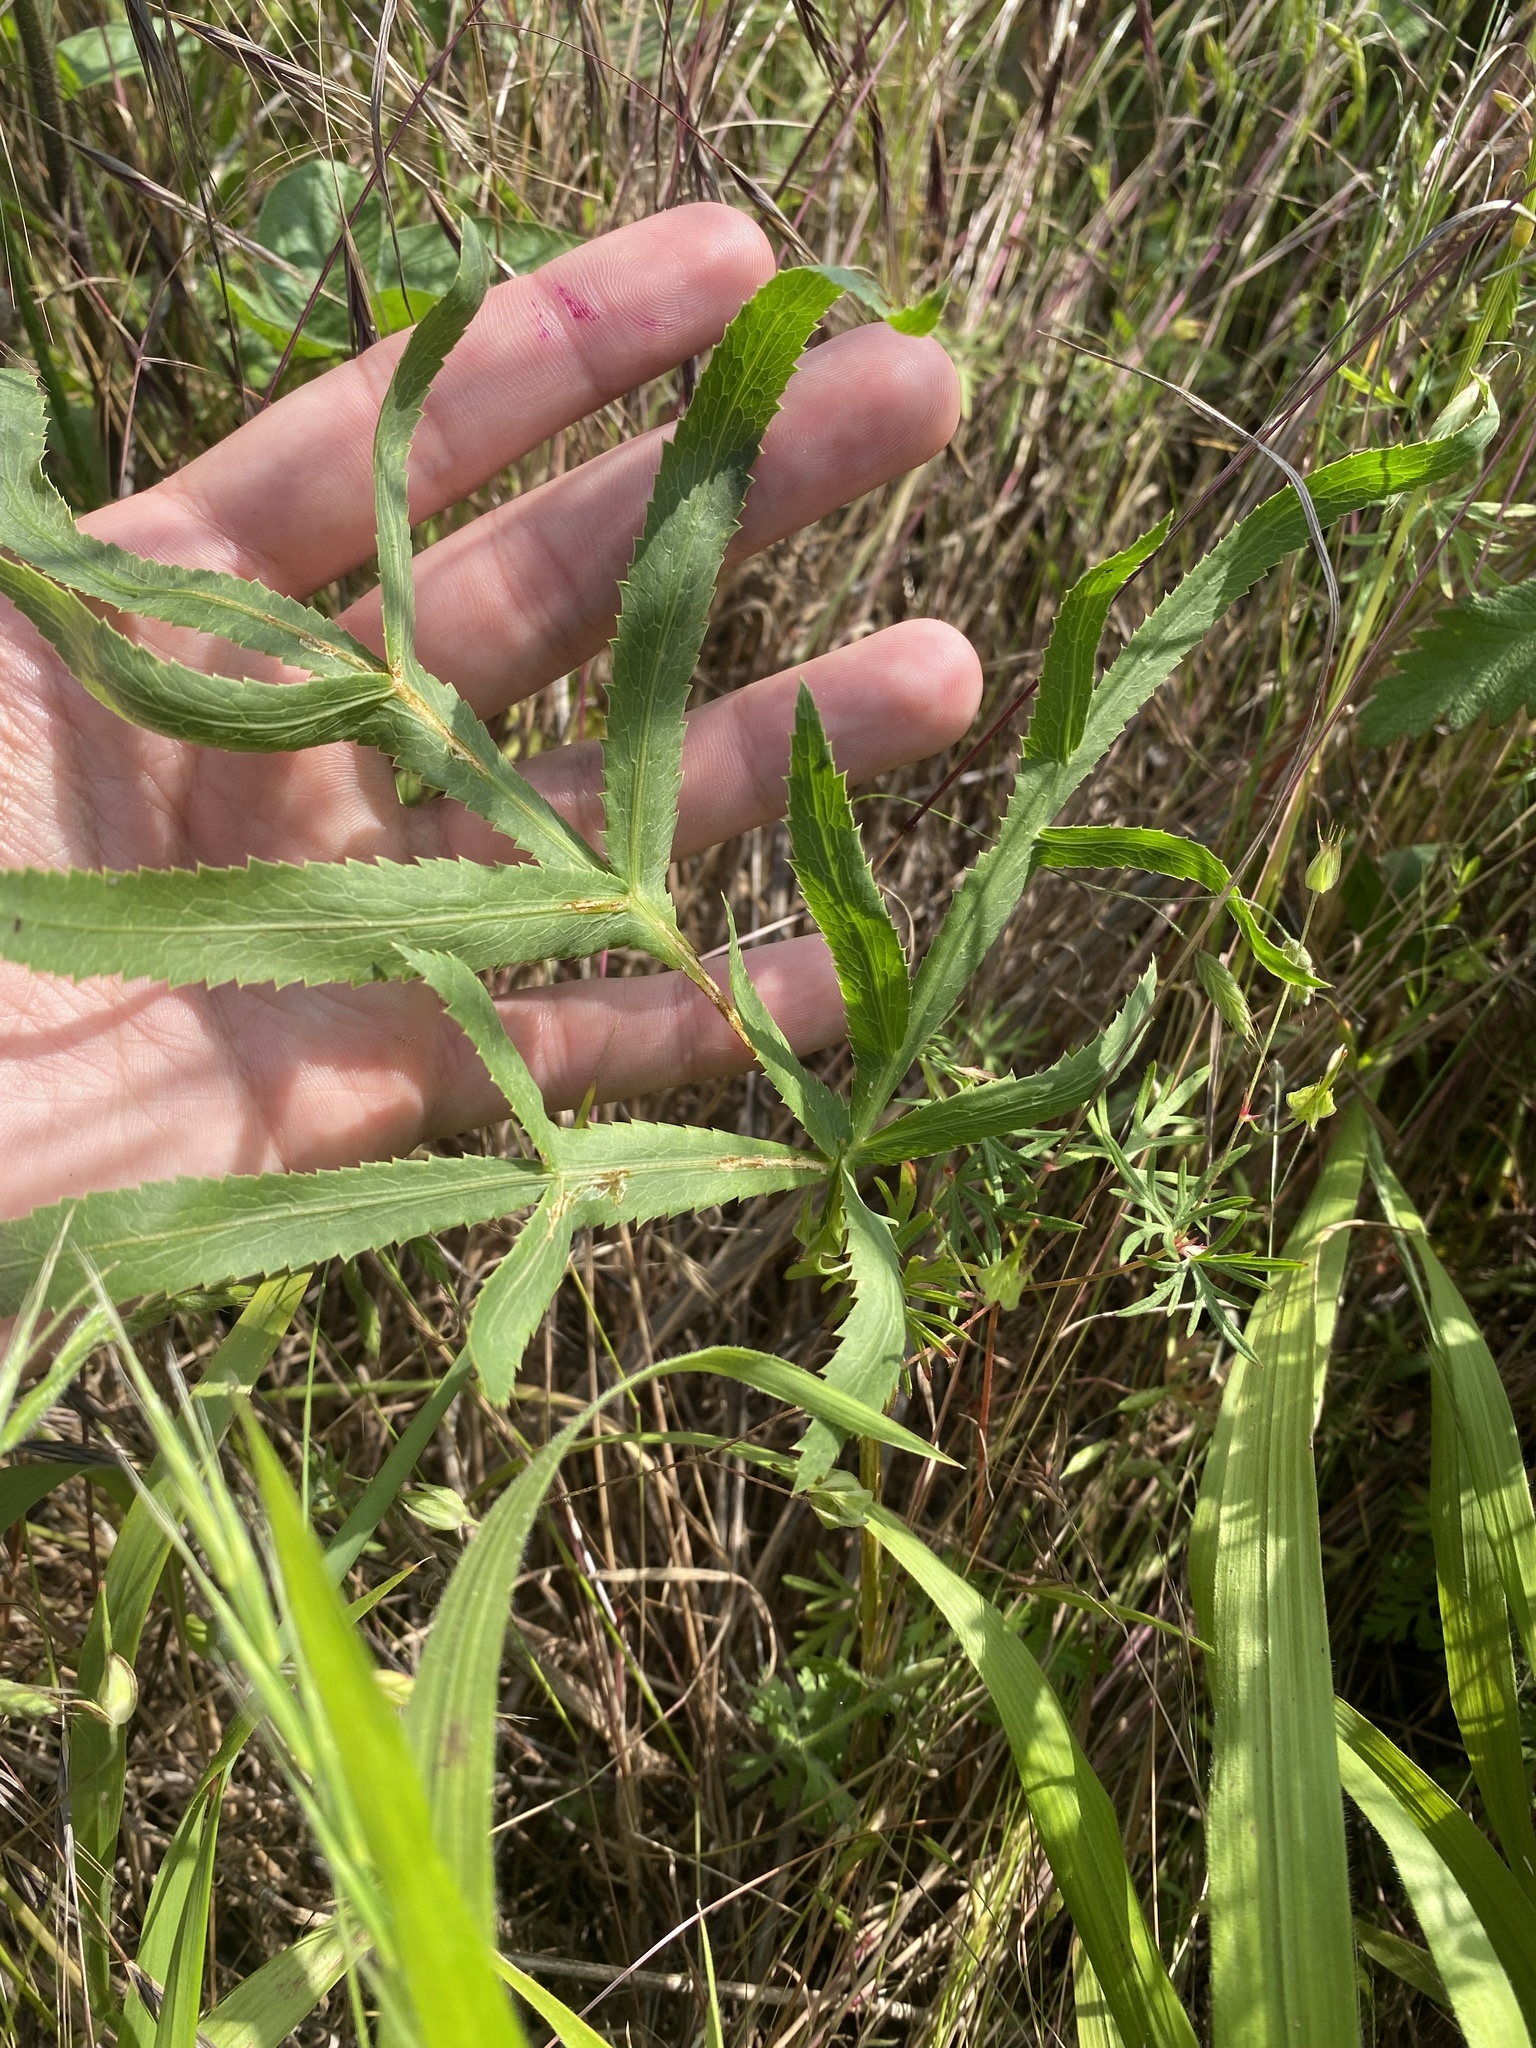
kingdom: Plantae
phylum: Tracheophyta
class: Magnoliopsida
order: Apiales
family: Apiaceae
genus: Falcaria
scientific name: Falcaria vulgaris
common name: Longleaf
